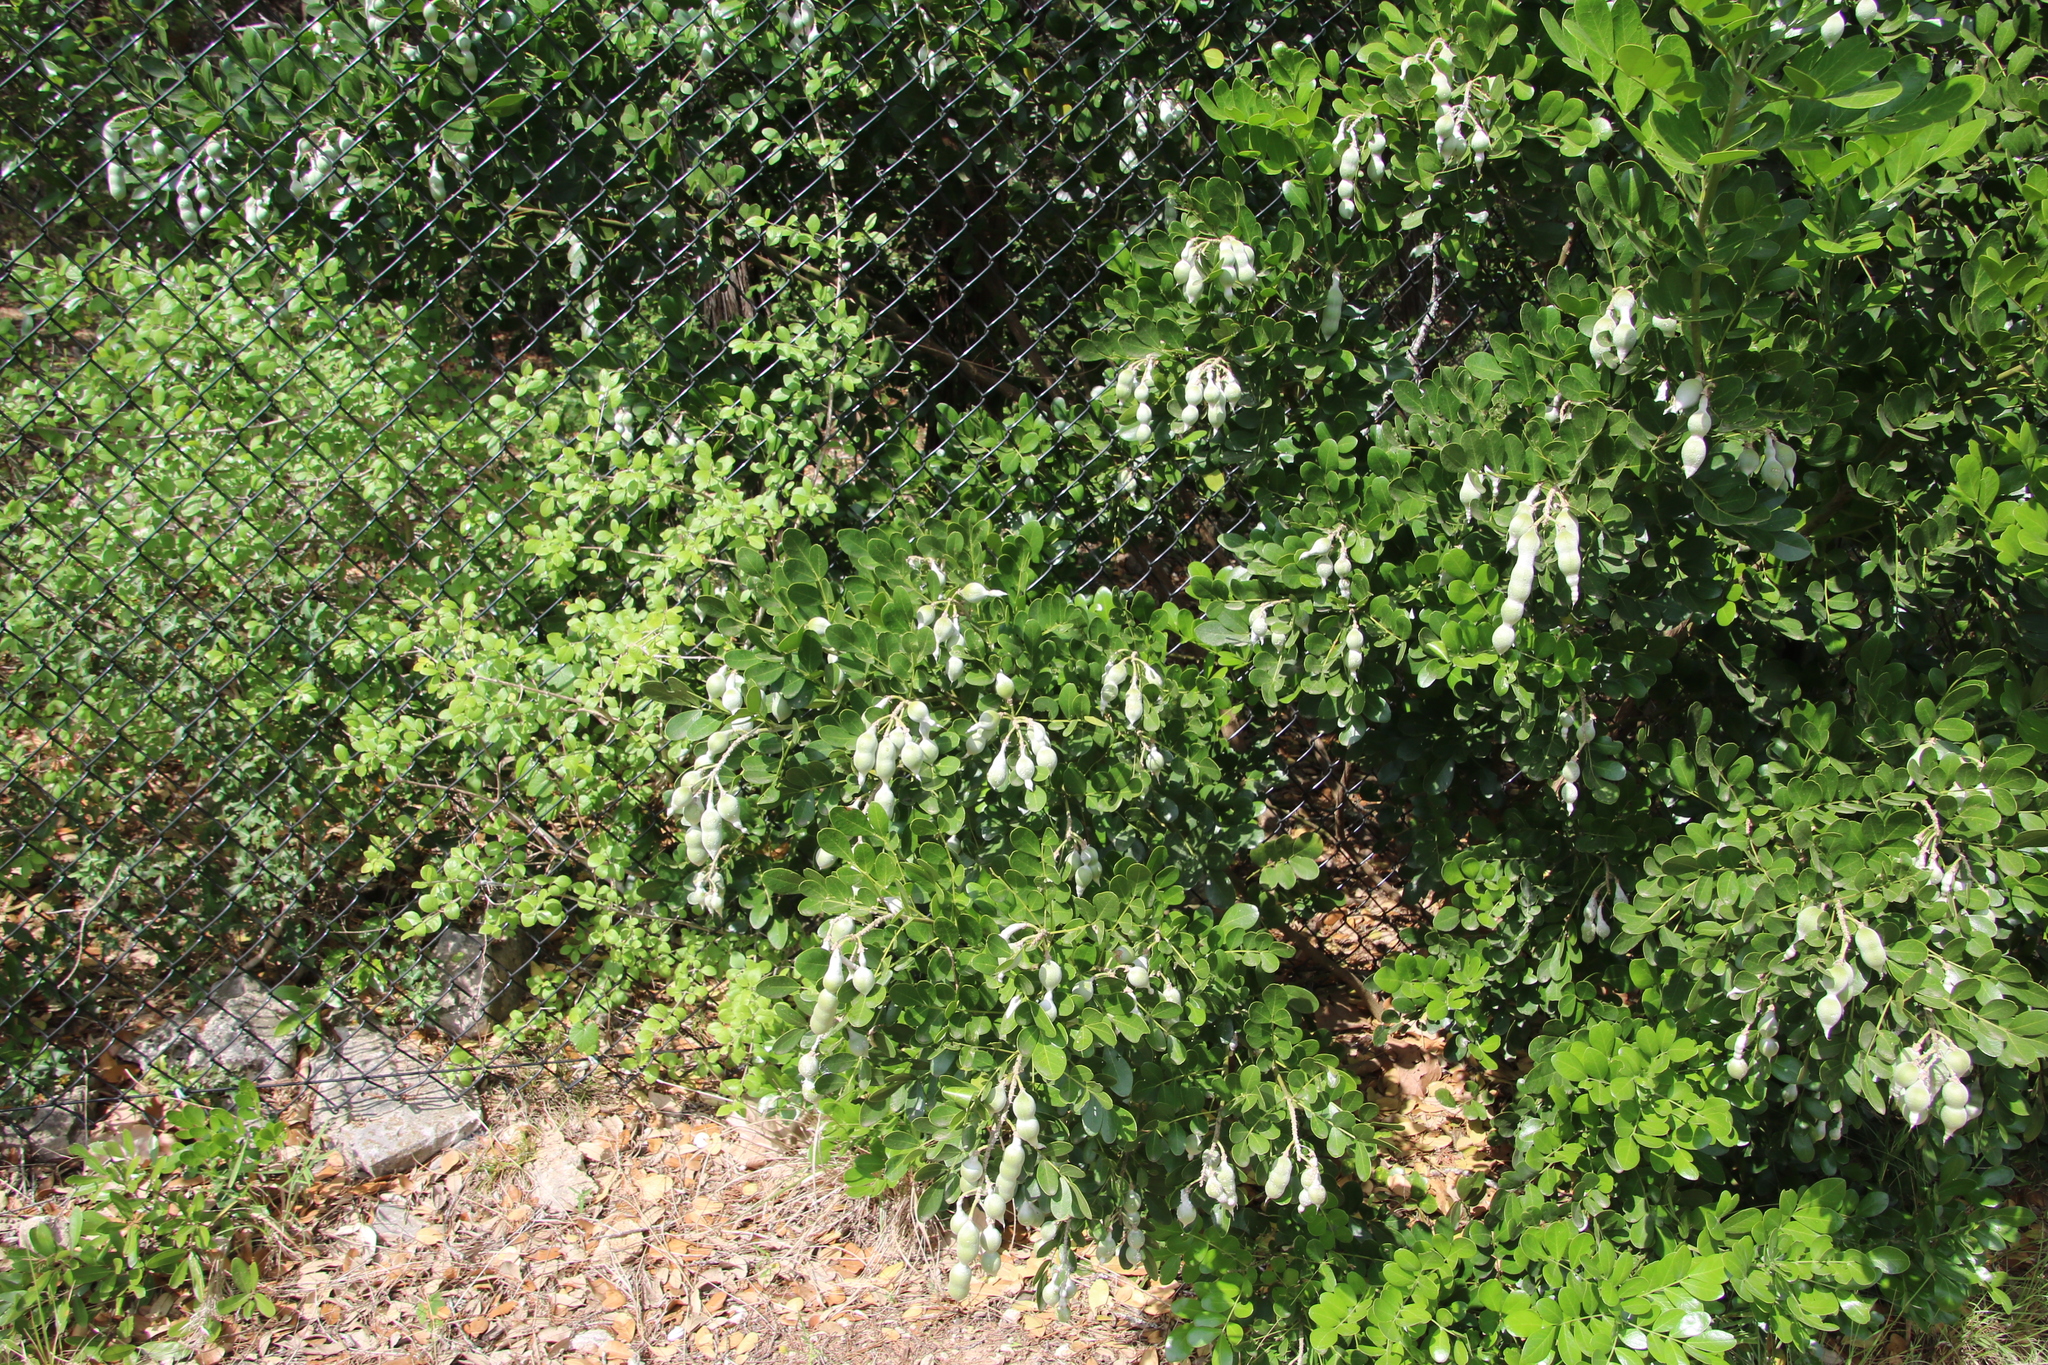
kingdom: Plantae
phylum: Tracheophyta
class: Magnoliopsida
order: Fabales
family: Fabaceae
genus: Dermatophyllum
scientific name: Dermatophyllum secundiflorum
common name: Texas-mountain-laurel
